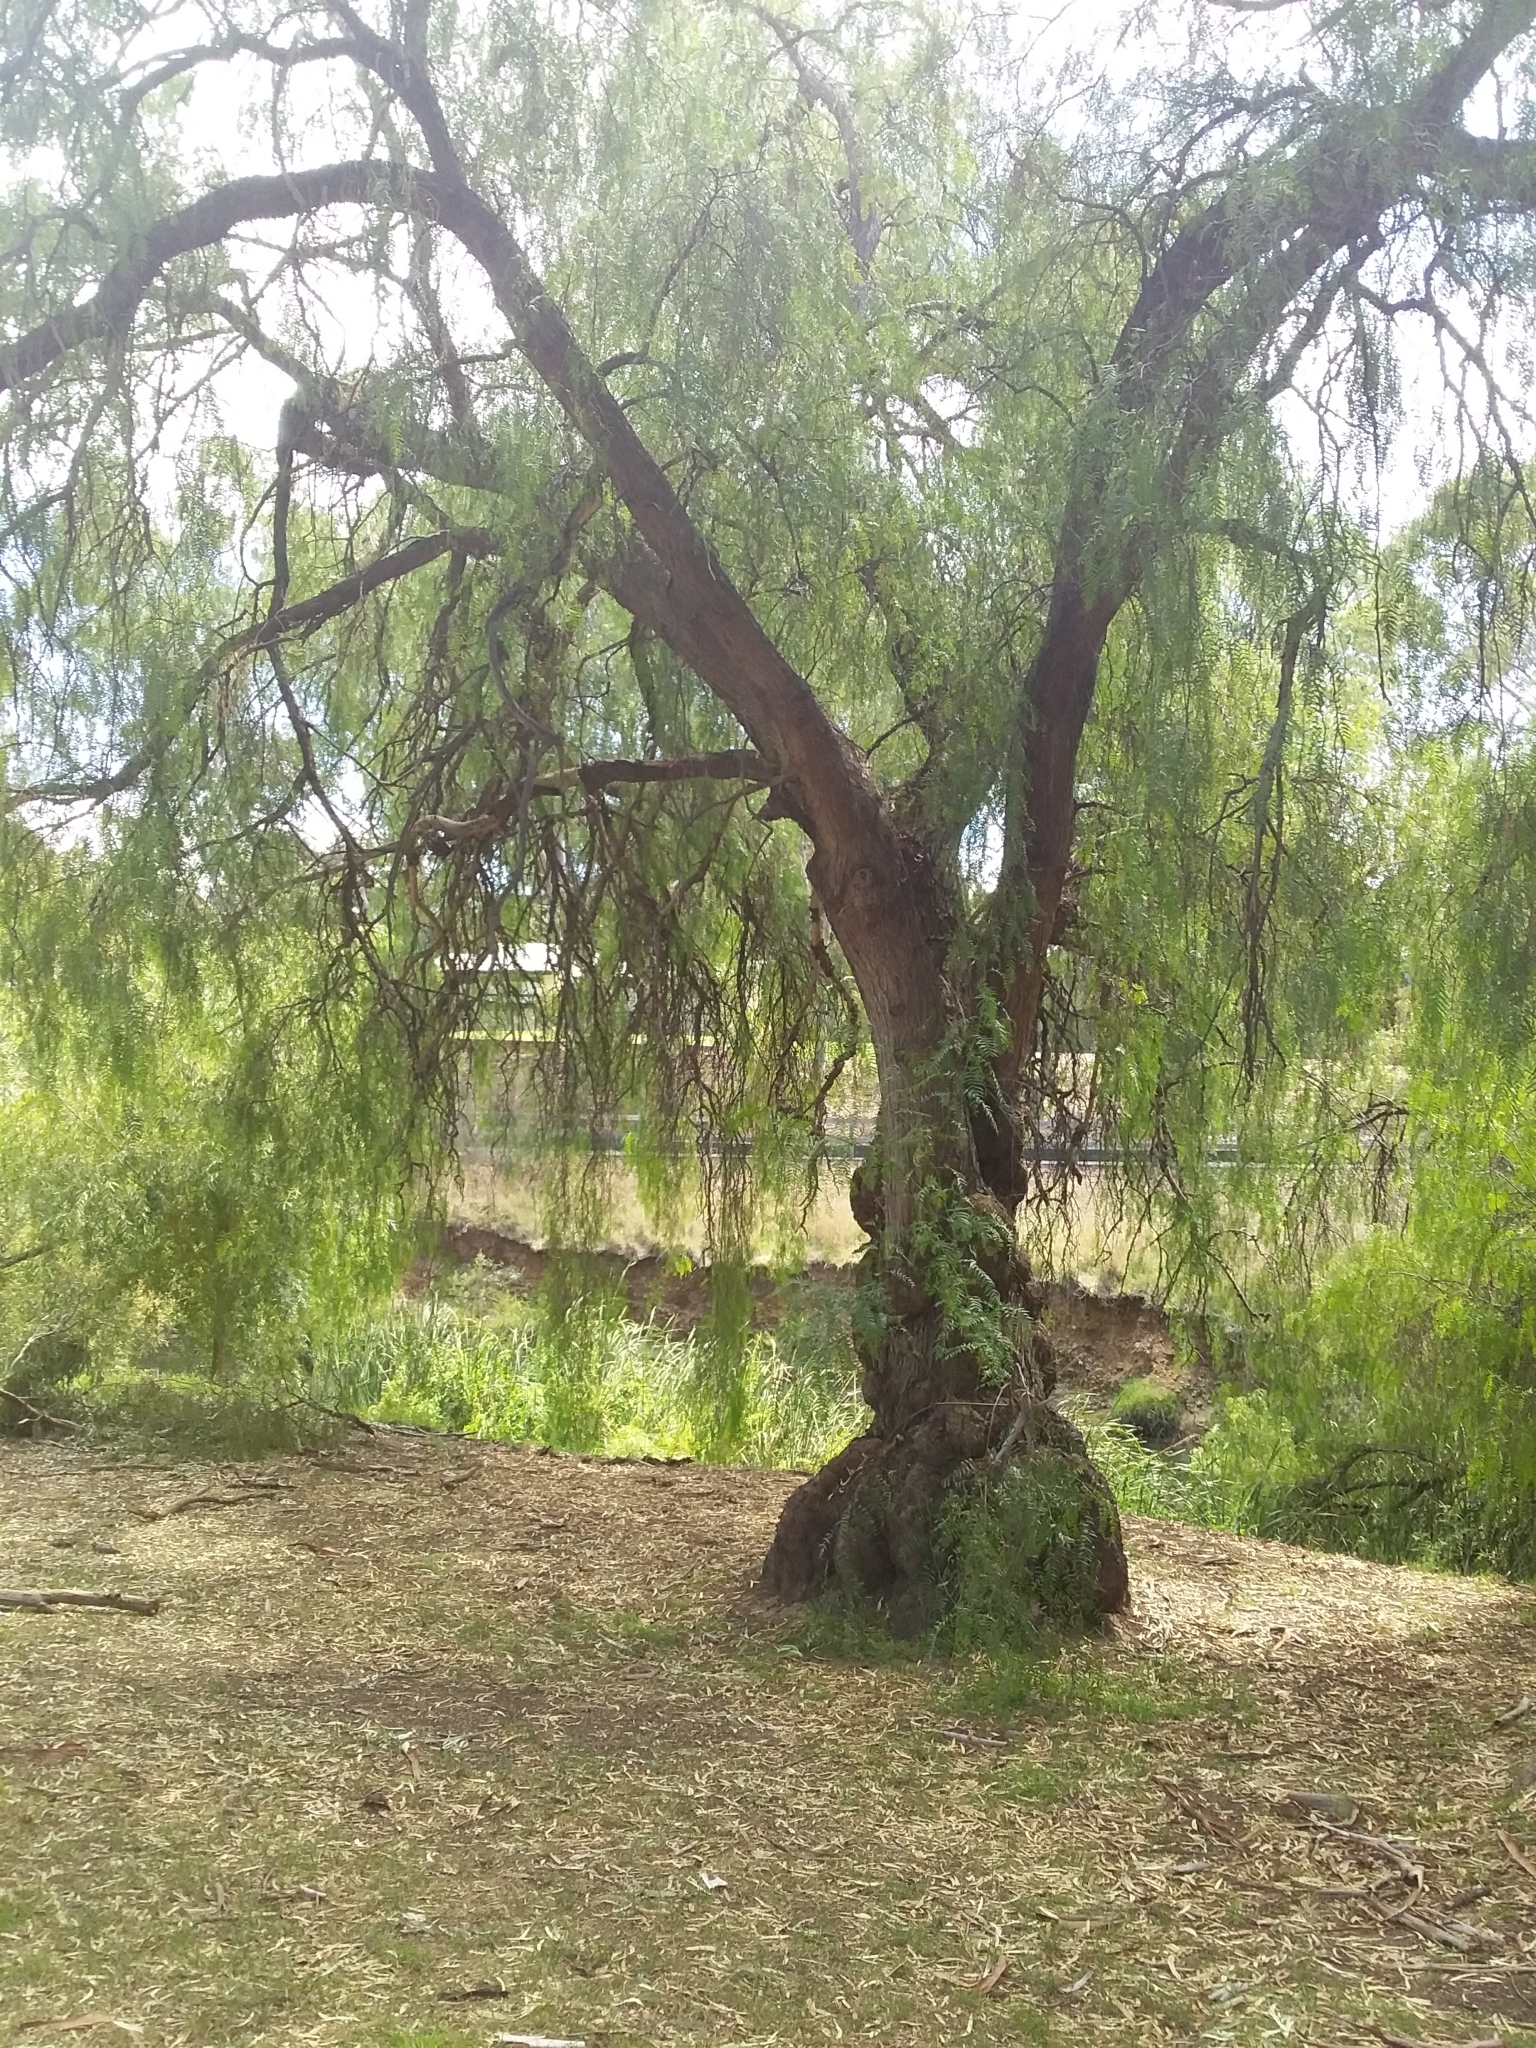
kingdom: Plantae
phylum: Tracheophyta
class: Magnoliopsida
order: Sapindales
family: Anacardiaceae
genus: Schinus
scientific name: Schinus molle
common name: Peruvian peppertree
